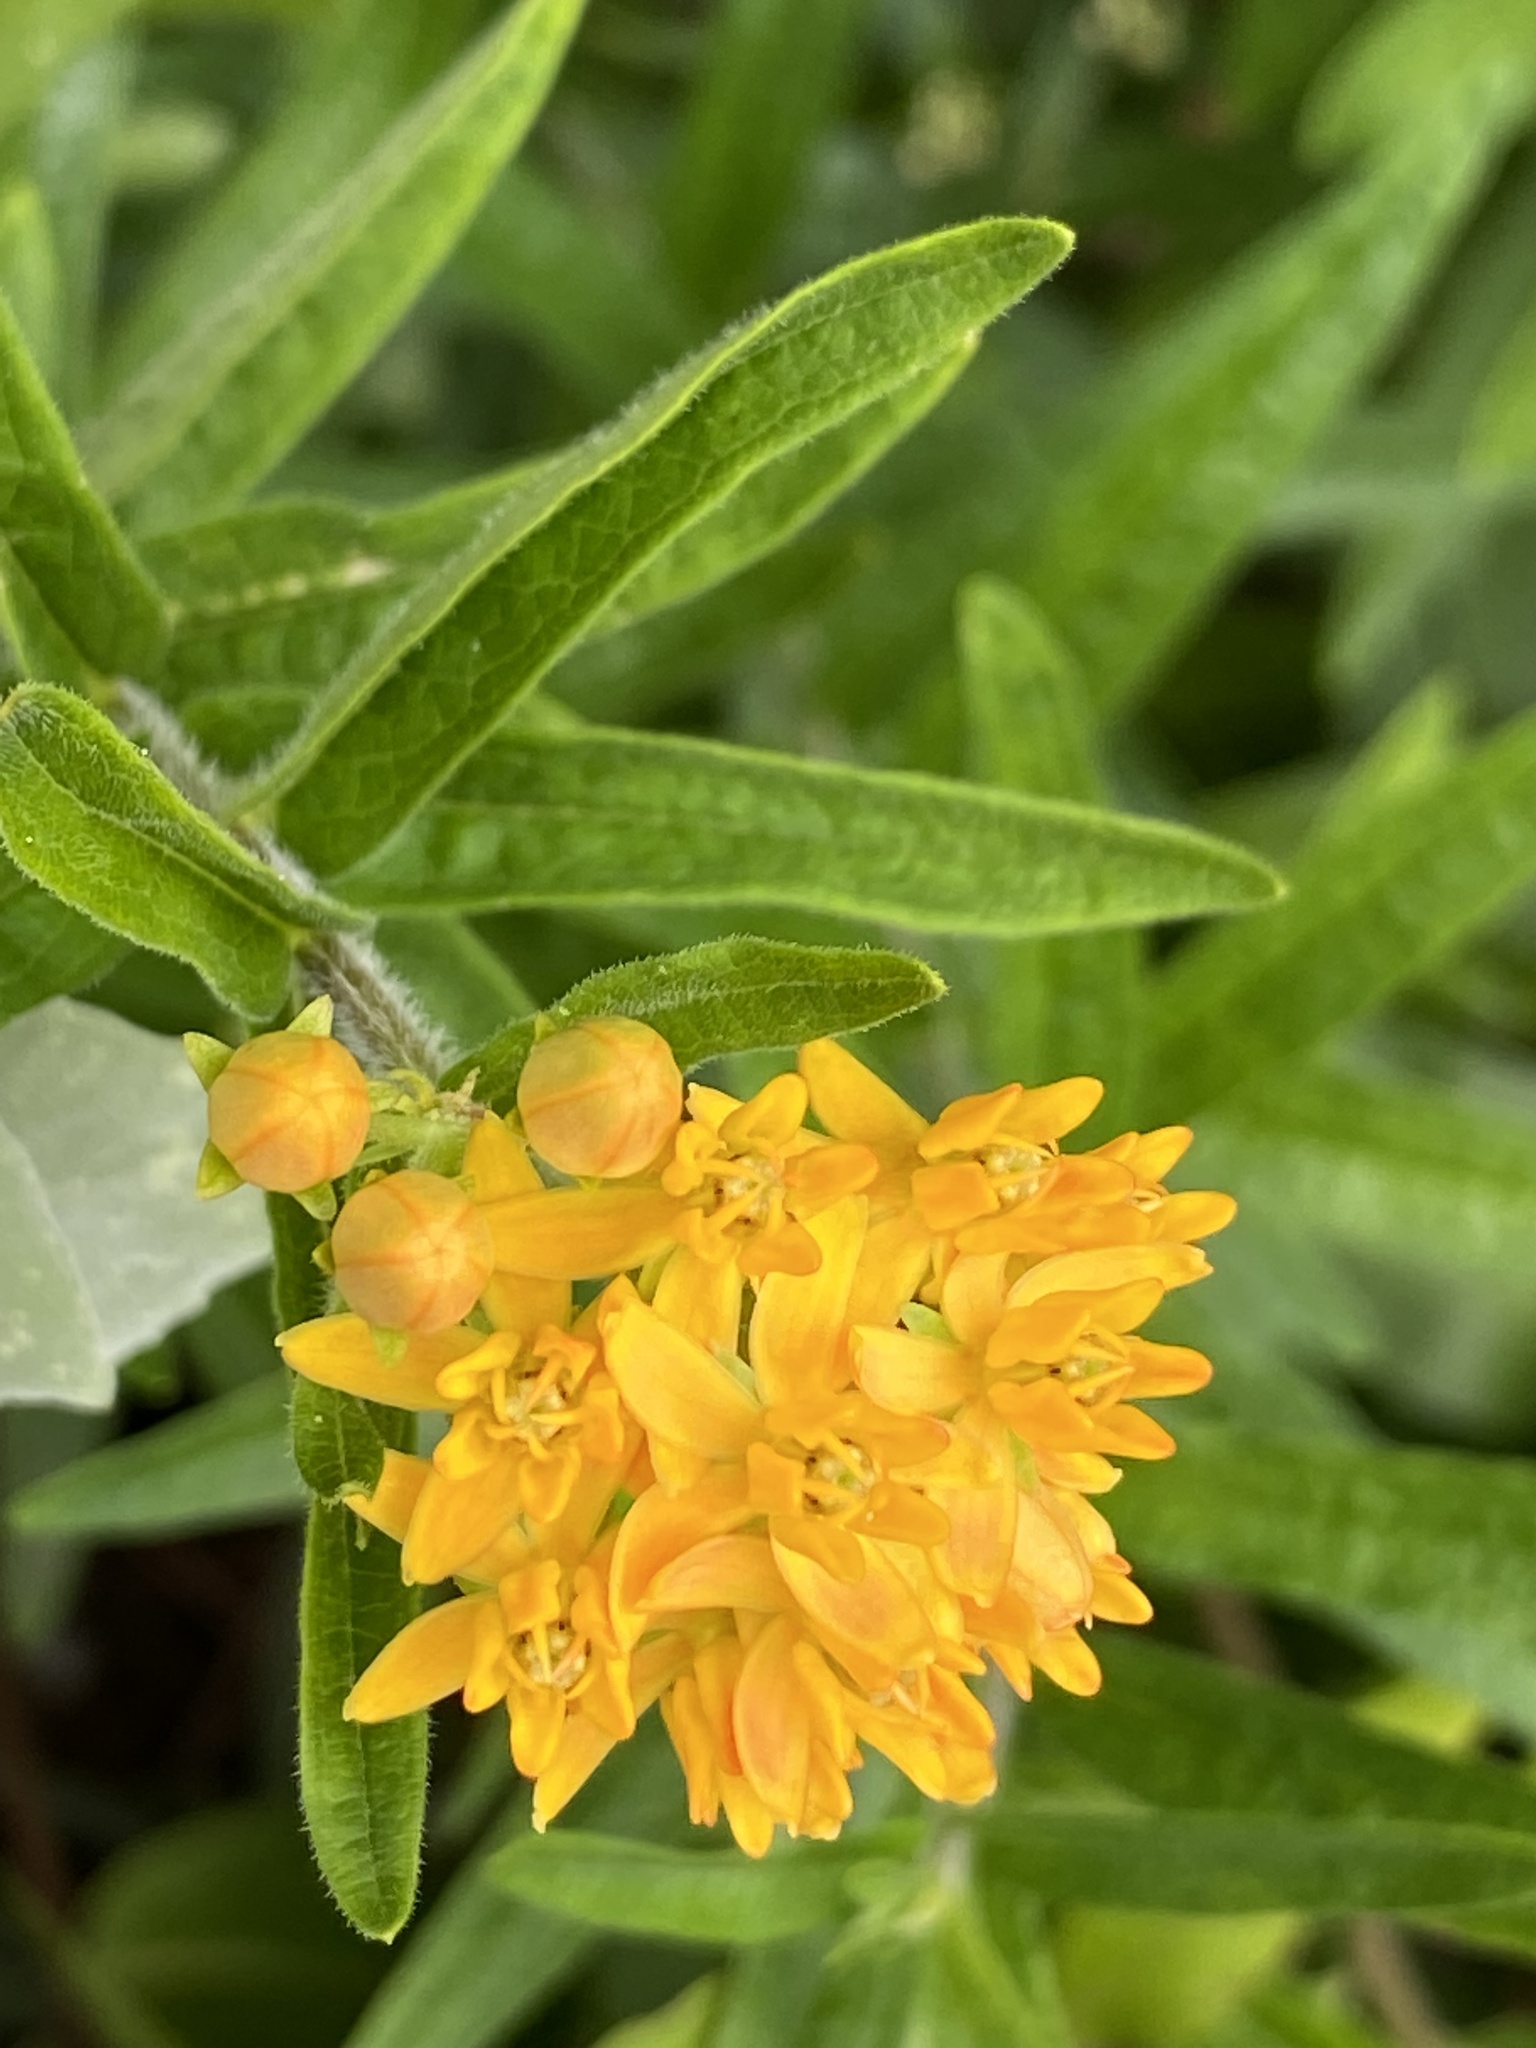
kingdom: Plantae
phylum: Tracheophyta
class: Magnoliopsida
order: Gentianales
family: Apocynaceae
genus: Asclepias
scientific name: Asclepias tuberosa
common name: Butterfly milkweed
